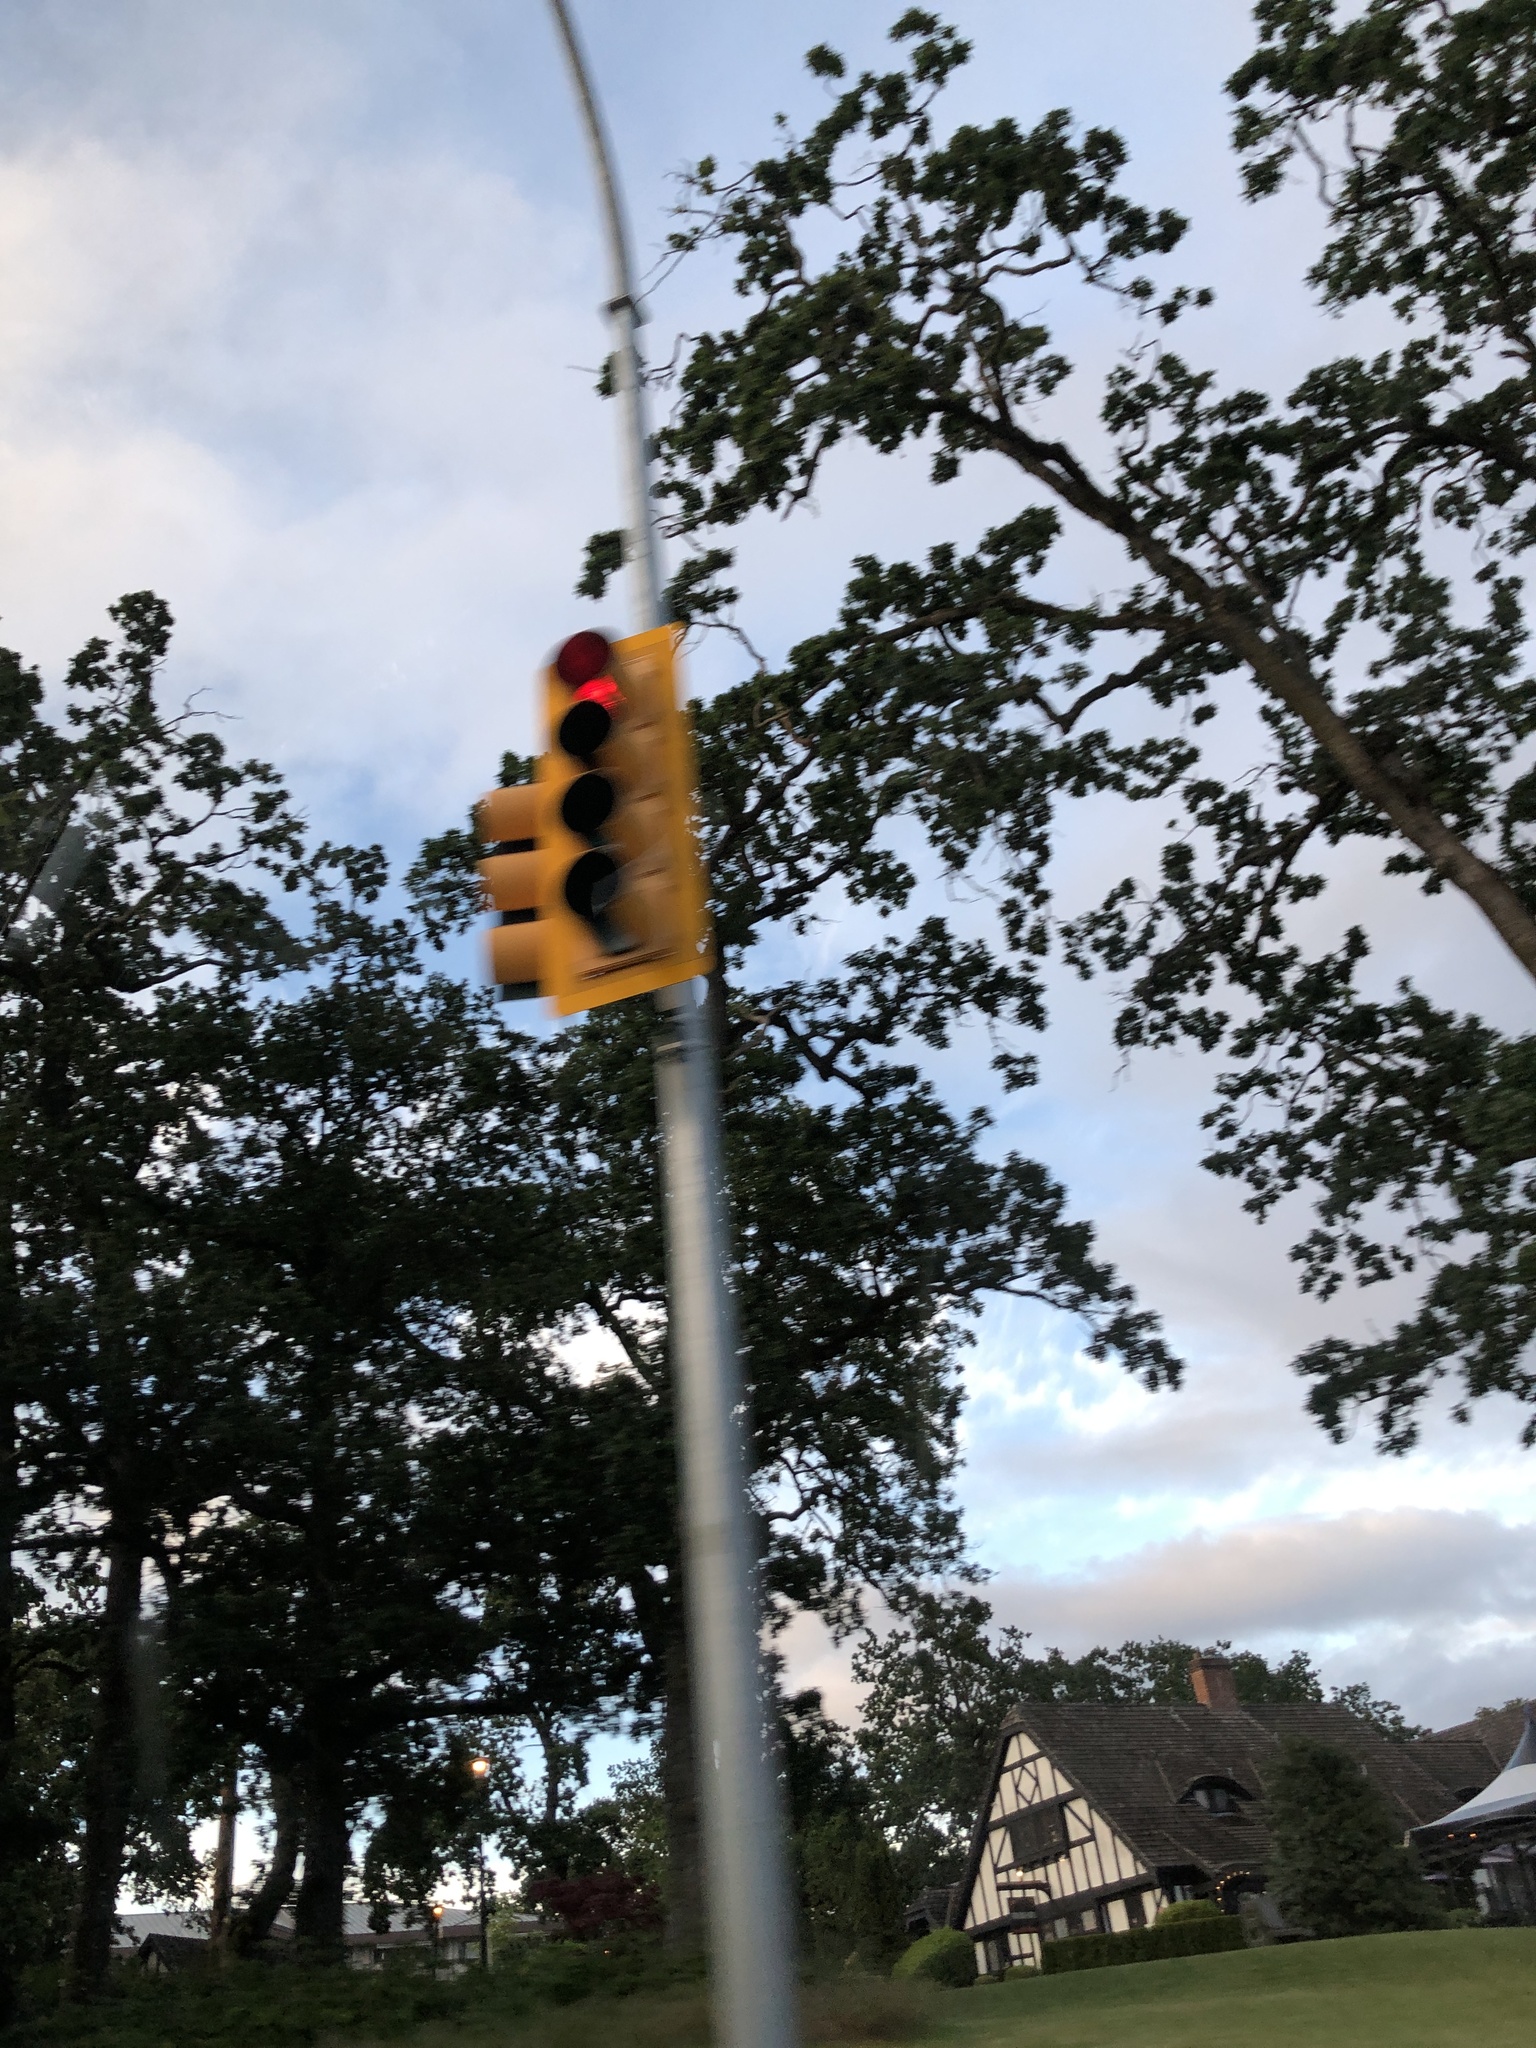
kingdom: Plantae
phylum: Tracheophyta
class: Magnoliopsida
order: Fagales
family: Fagaceae
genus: Quercus
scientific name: Quercus garryana
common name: Garry oak
